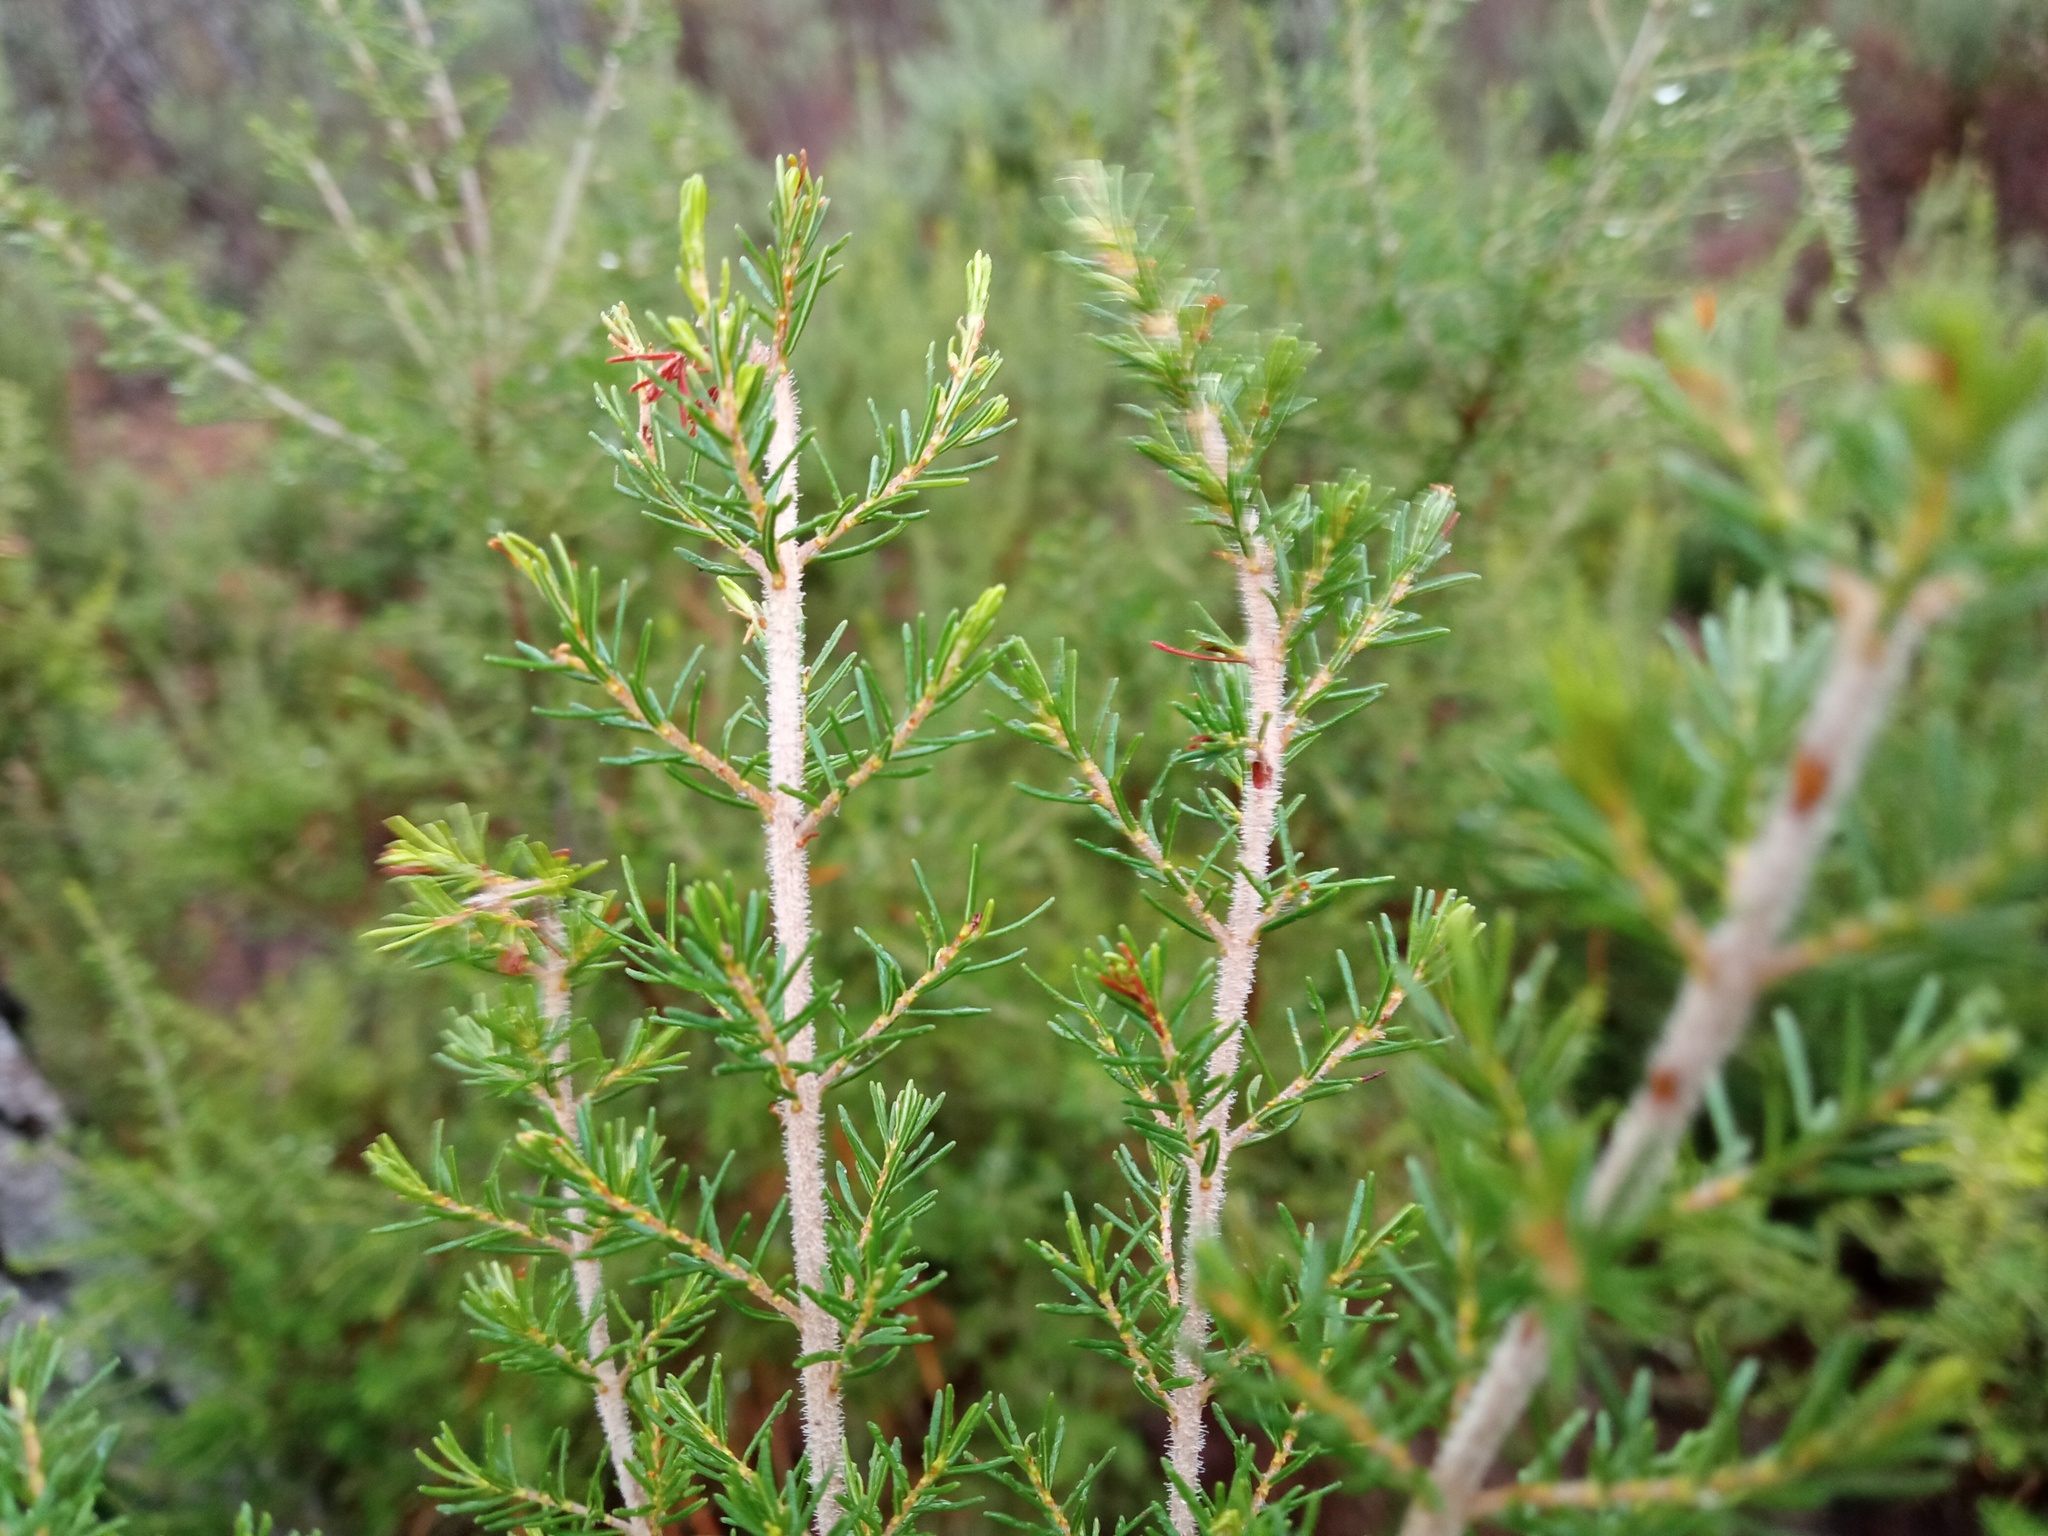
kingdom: Plantae
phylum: Tracheophyta
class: Magnoliopsida
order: Ericales
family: Ericaceae
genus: Erica
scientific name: Erica arborea
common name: Tree heath
